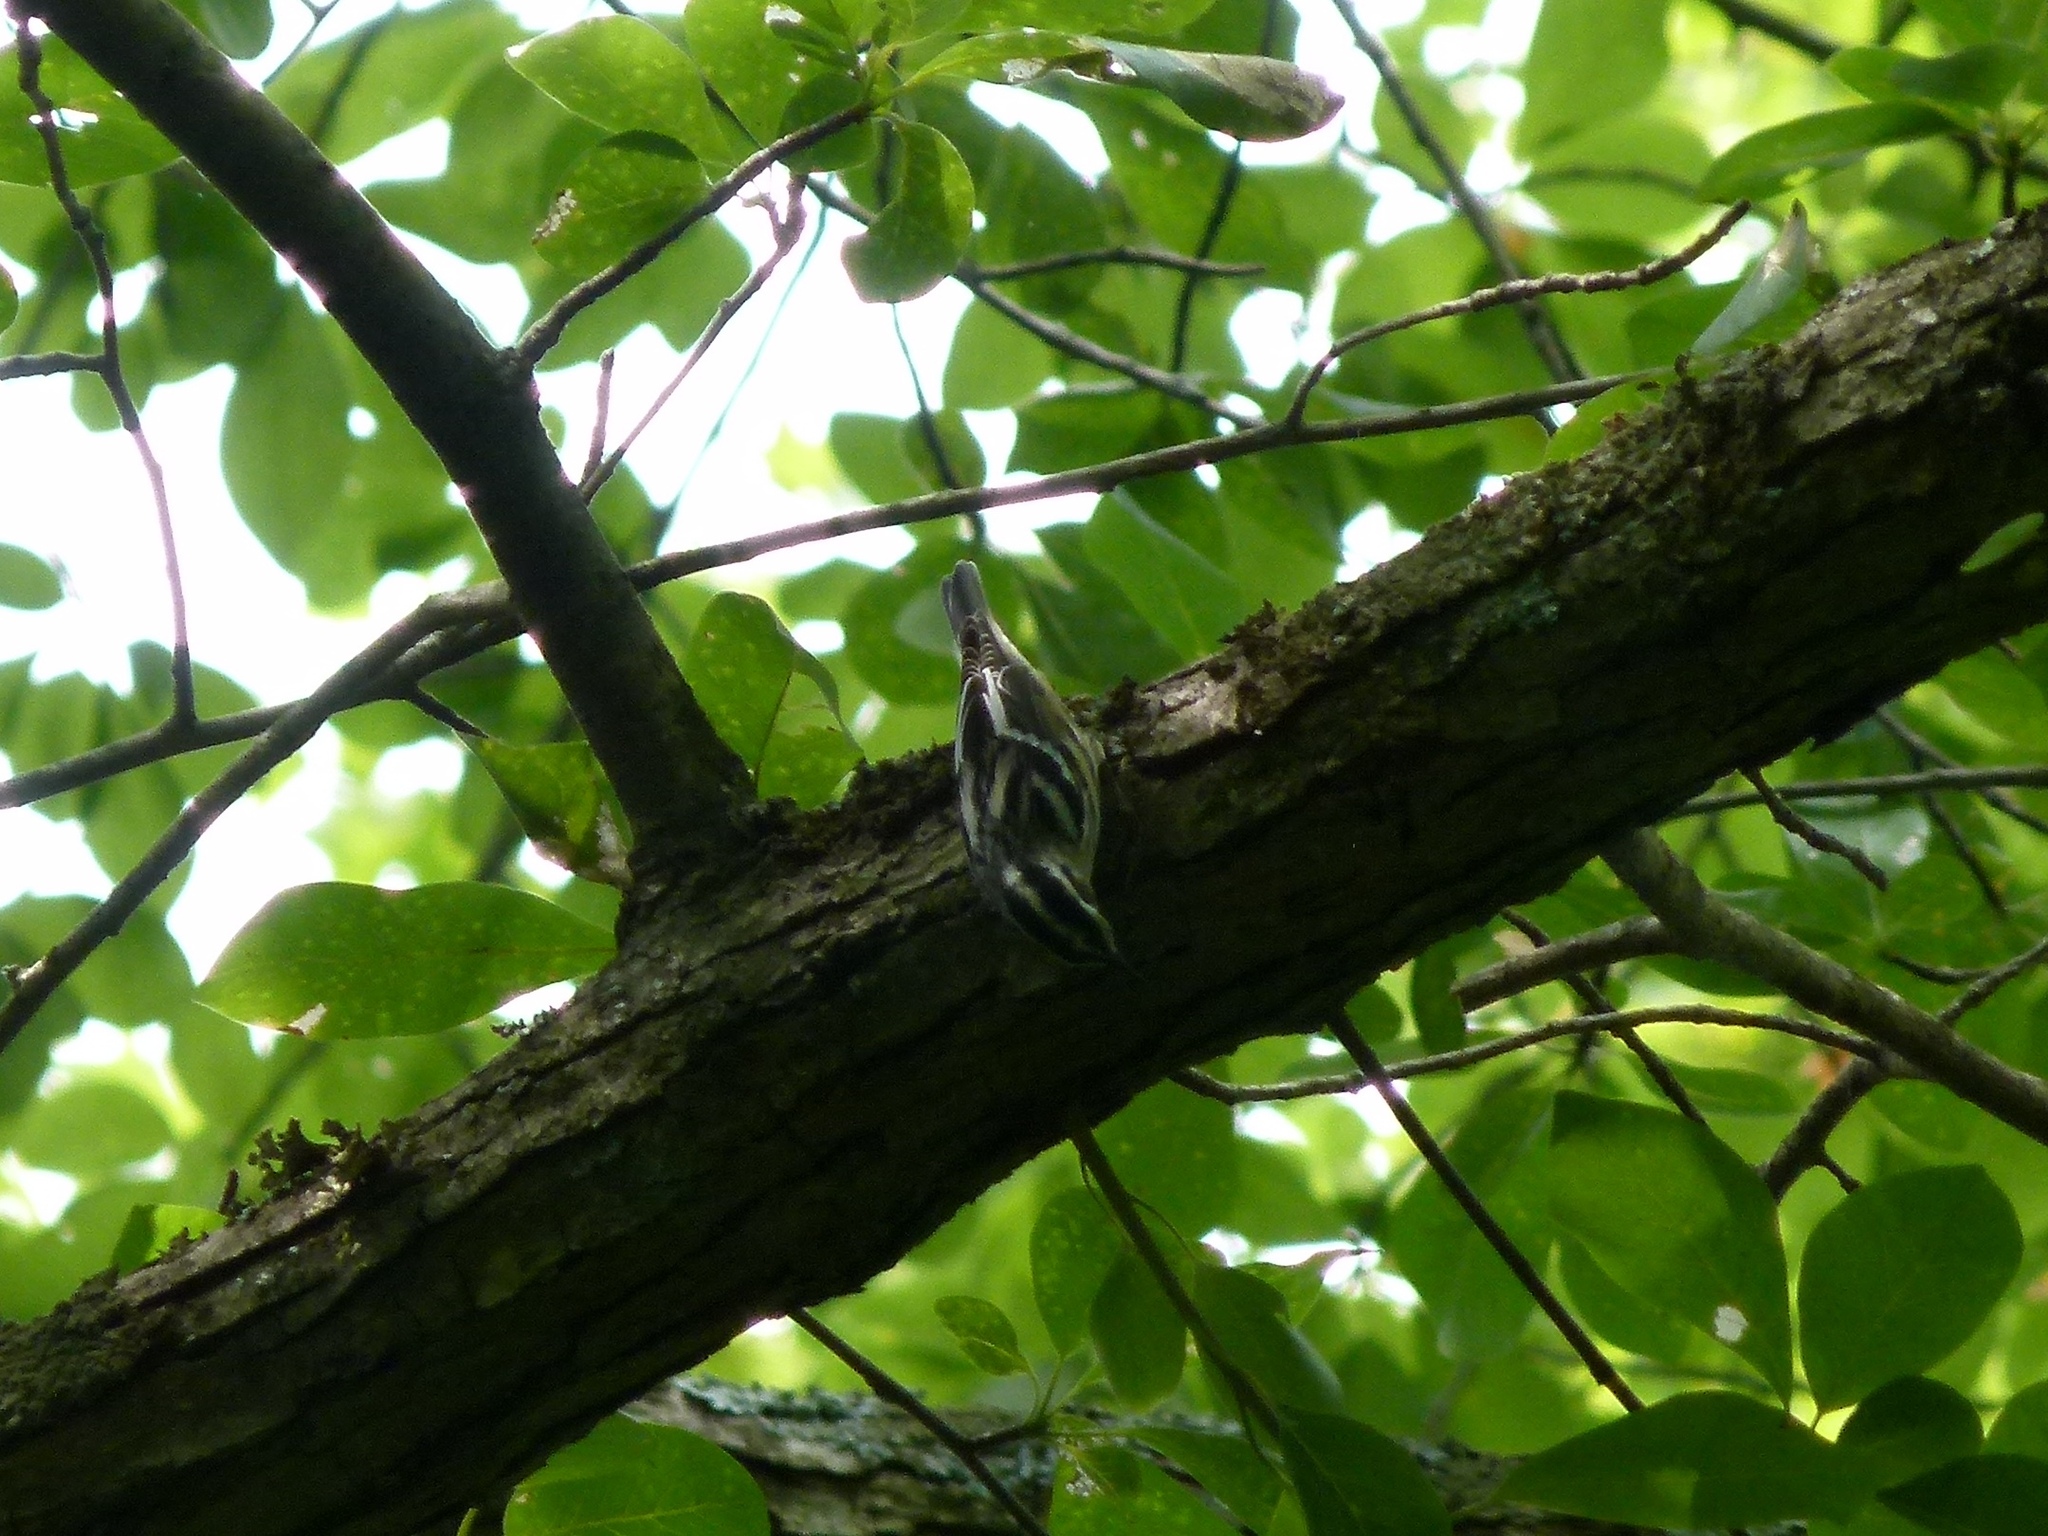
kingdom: Animalia
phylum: Chordata
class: Aves
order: Passeriformes
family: Parulidae
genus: Mniotilta
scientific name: Mniotilta varia
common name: Black-and-white warbler
